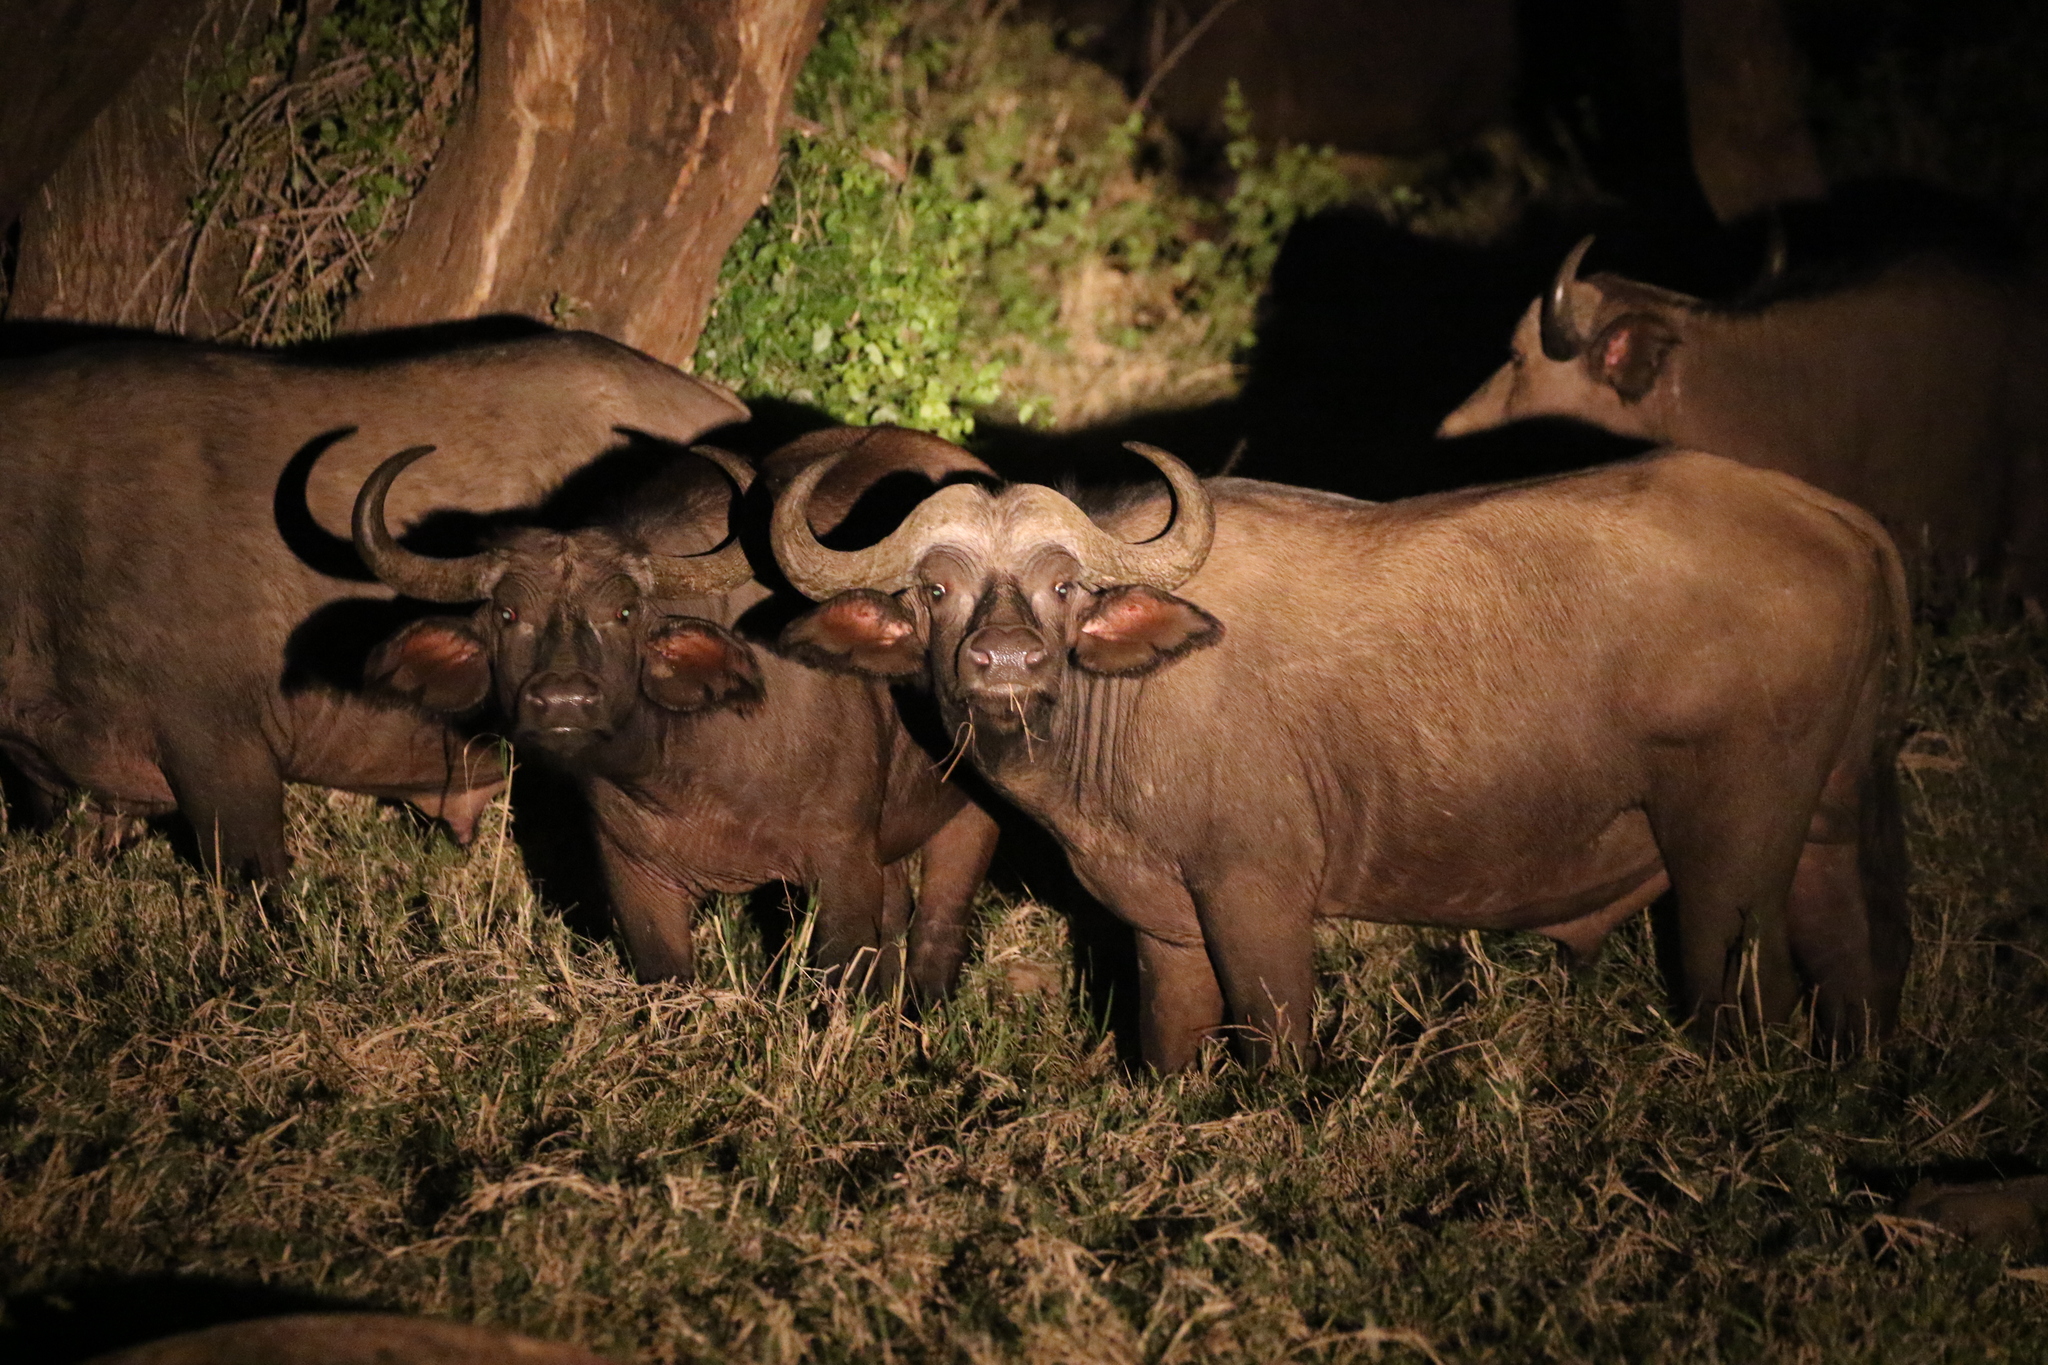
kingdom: Animalia
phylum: Chordata
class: Mammalia
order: Artiodactyla
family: Bovidae
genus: Syncerus
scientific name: Syncerus caffer
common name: African buffalo
